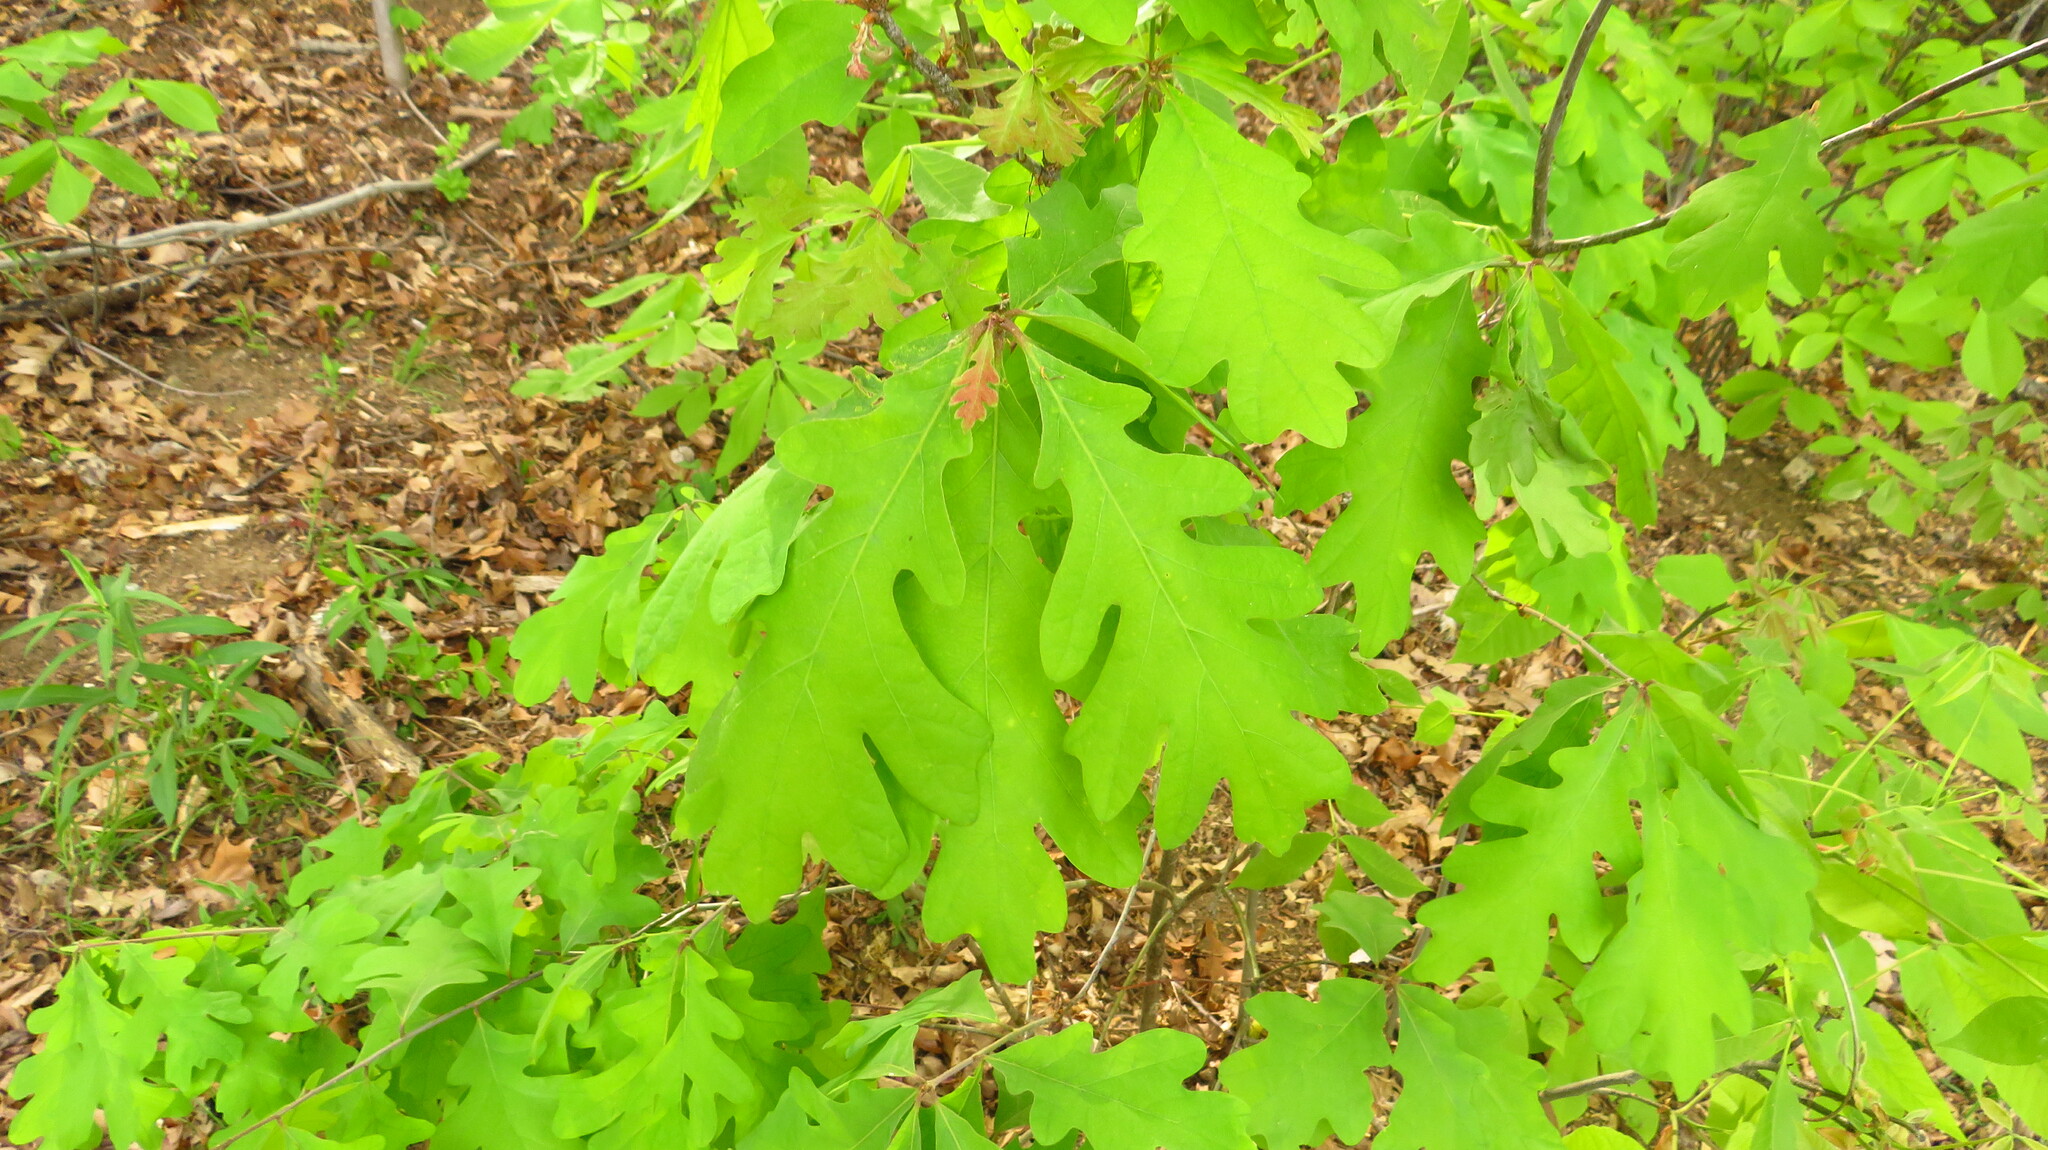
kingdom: Plantae
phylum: Tracheophyta
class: Magnoliopsida
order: Fagales
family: Fagaceae
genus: Quercus
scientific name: Quercus alba
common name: White oak
